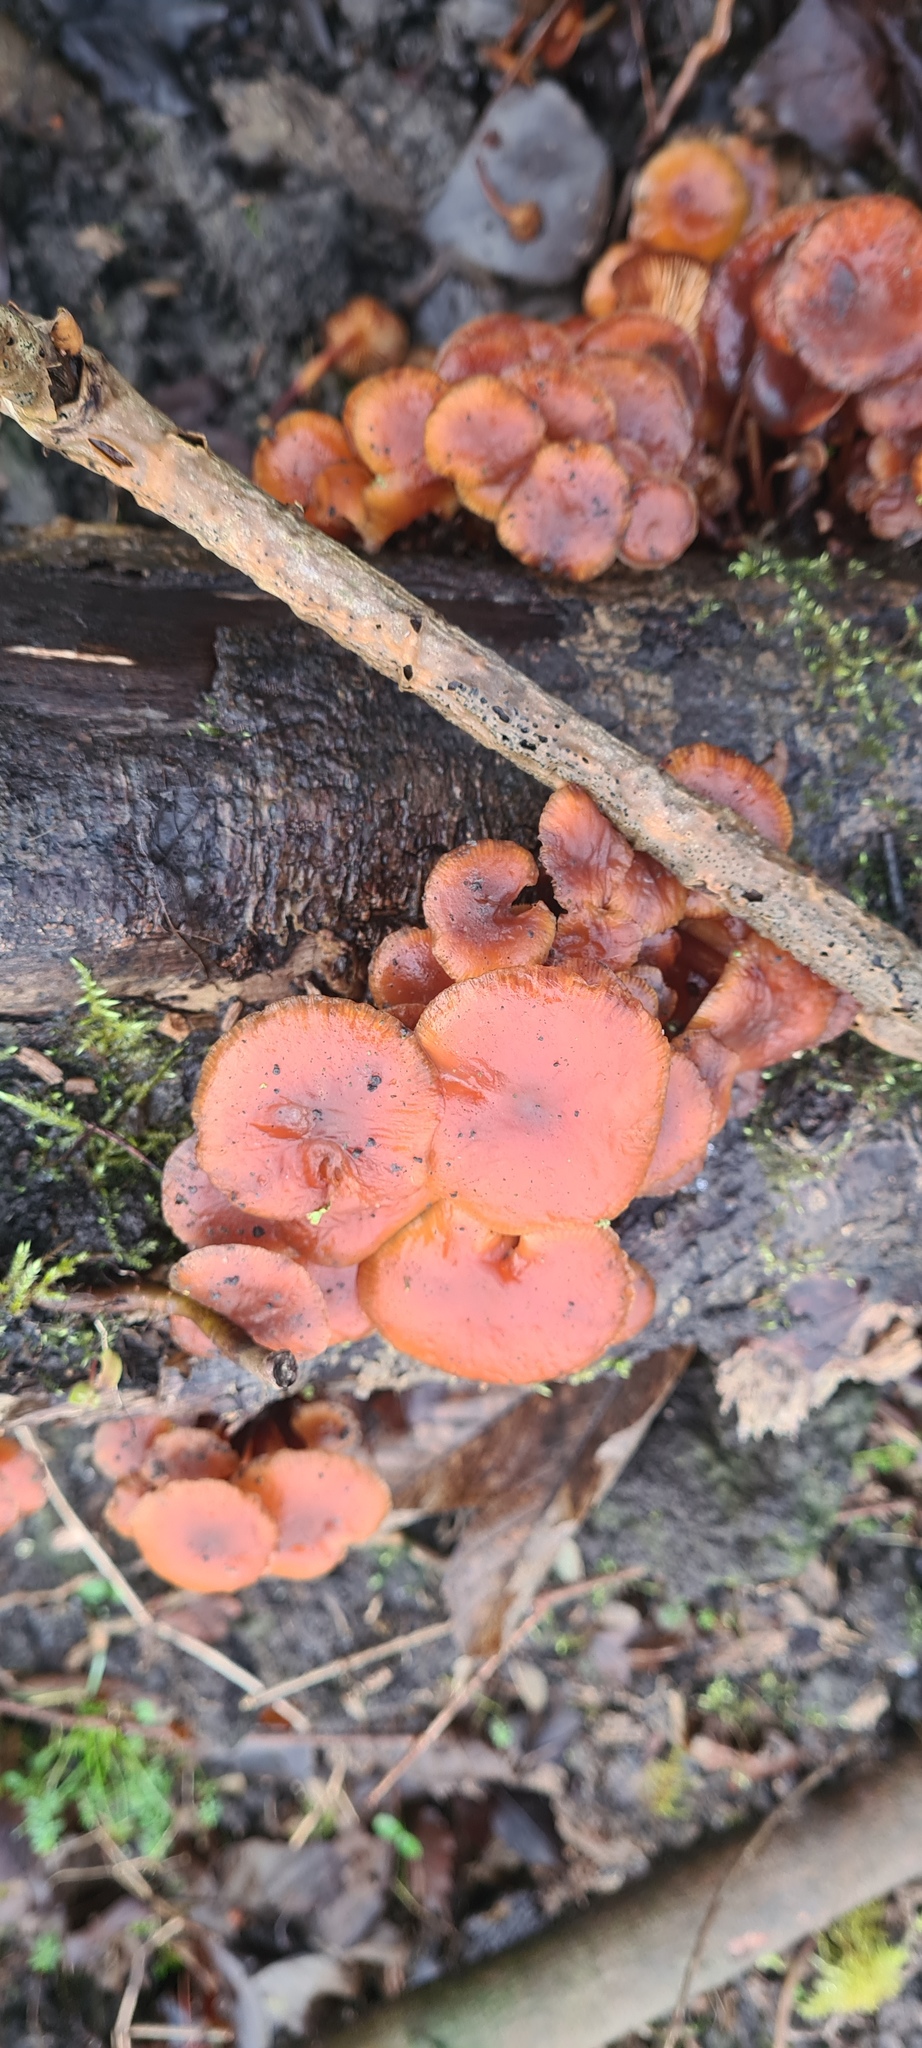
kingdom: Fungi
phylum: Basidiomycota
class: Agaricomycetes
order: Agaricales
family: Physalacriaceae
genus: Flammulina
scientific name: Flammulina
